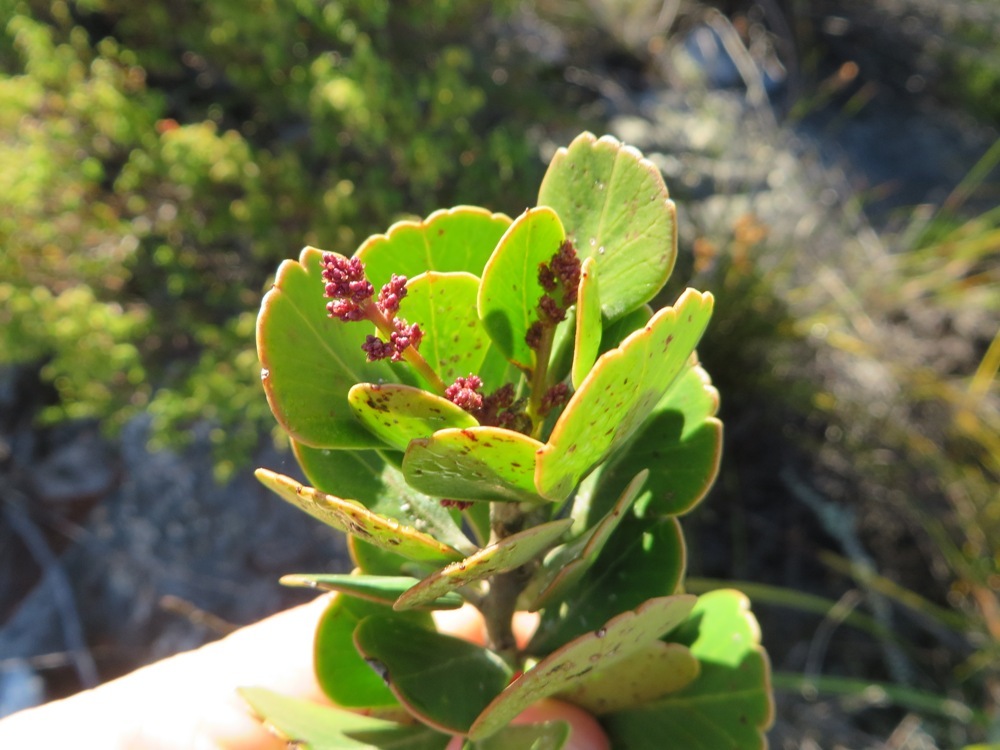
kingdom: Plantae
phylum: Tracheophyta
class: Magnoliopsida
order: Sapindales
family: Anacardiaceae
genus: Searsia
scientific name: Searsia scytophylla
